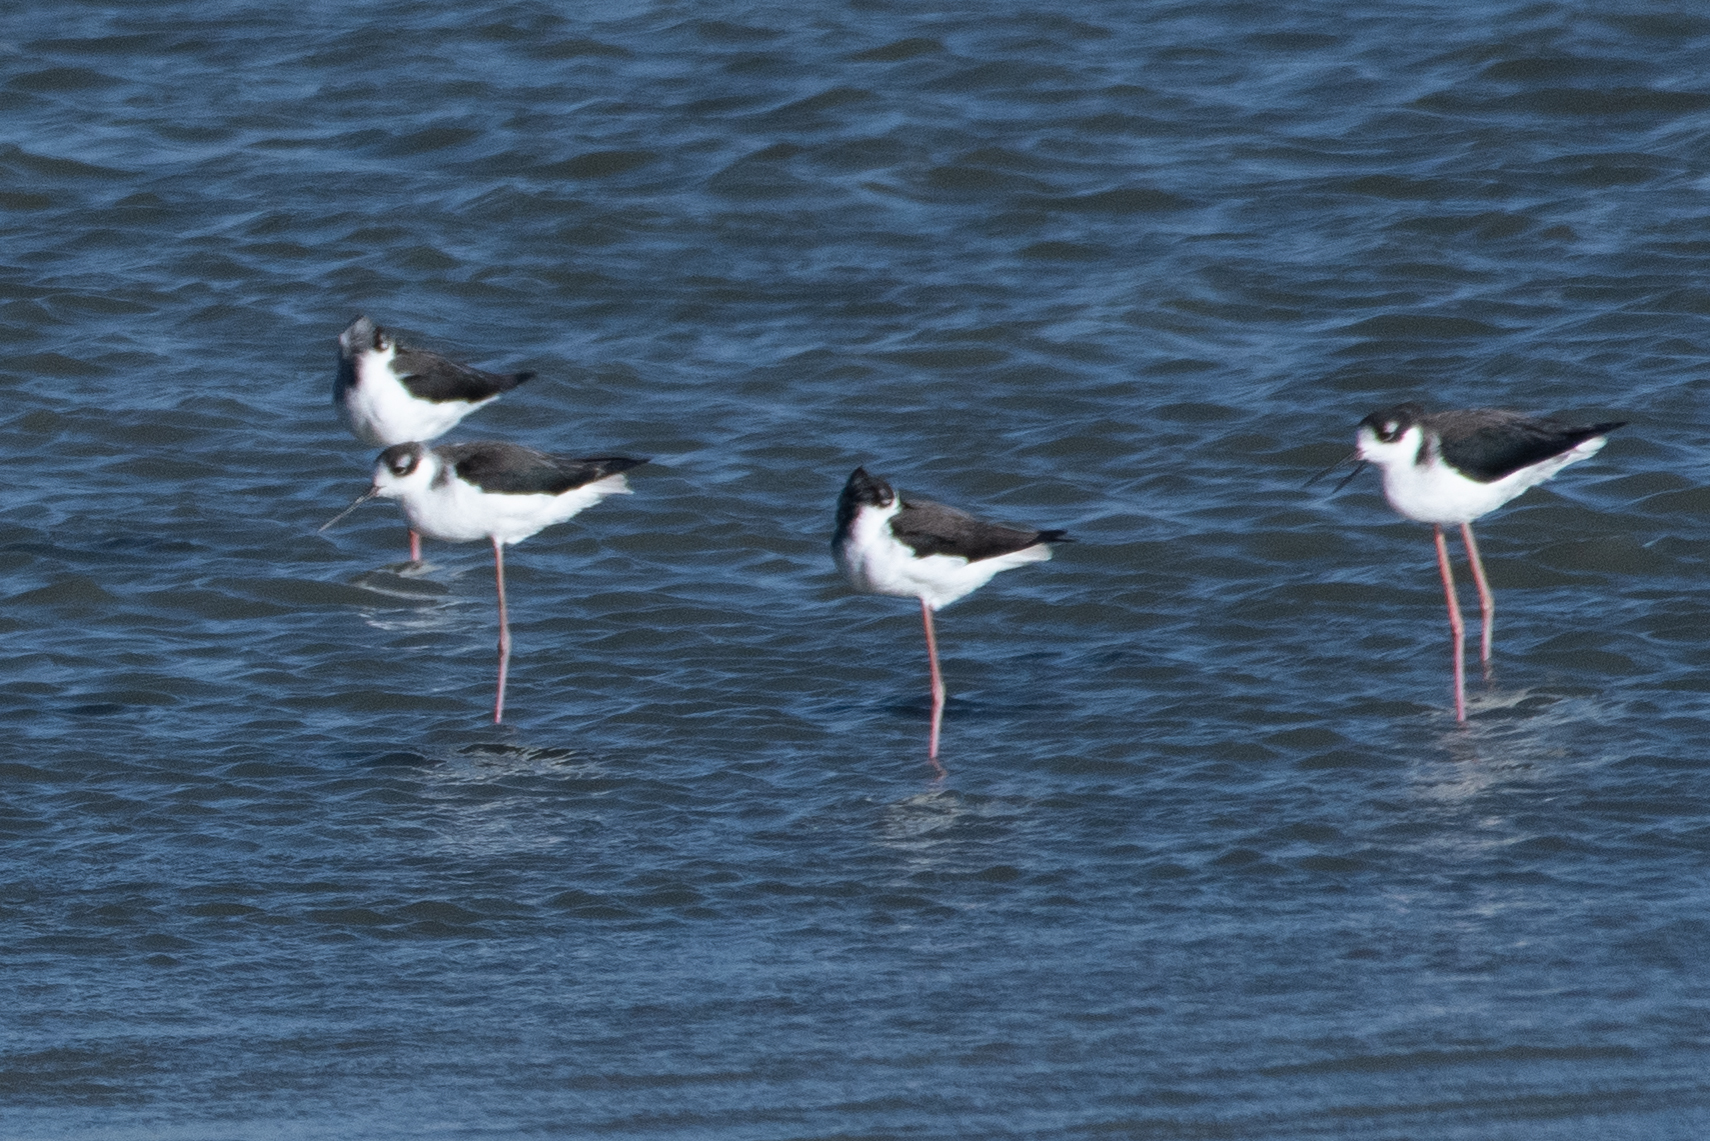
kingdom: Animalia
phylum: Chordata
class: Aves
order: Charadriiformes
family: Recurvirostridae
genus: Himantopus
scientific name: Himantopus mexicanus
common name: Black-necked stilt
